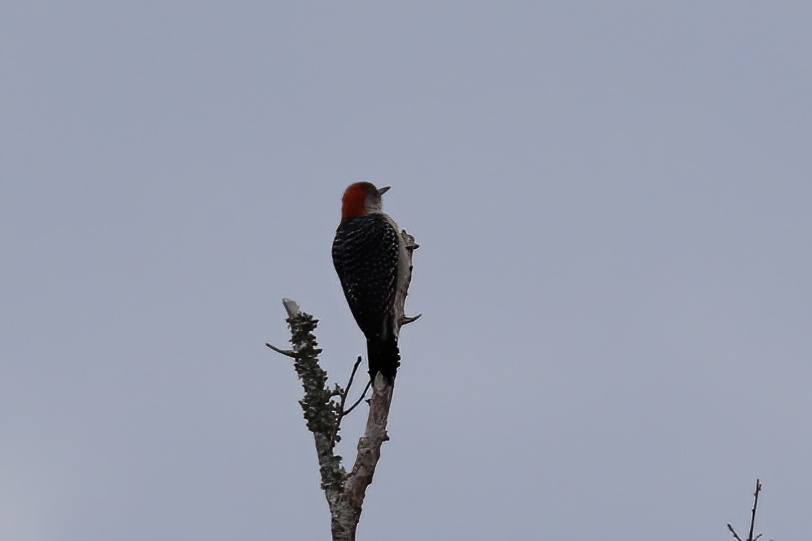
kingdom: Animalia
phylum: Chordata
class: Aves
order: Piciformes
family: Picidae
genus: Melanerpes
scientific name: Melanerpes carolinus
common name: Red-bellied woodpecker
